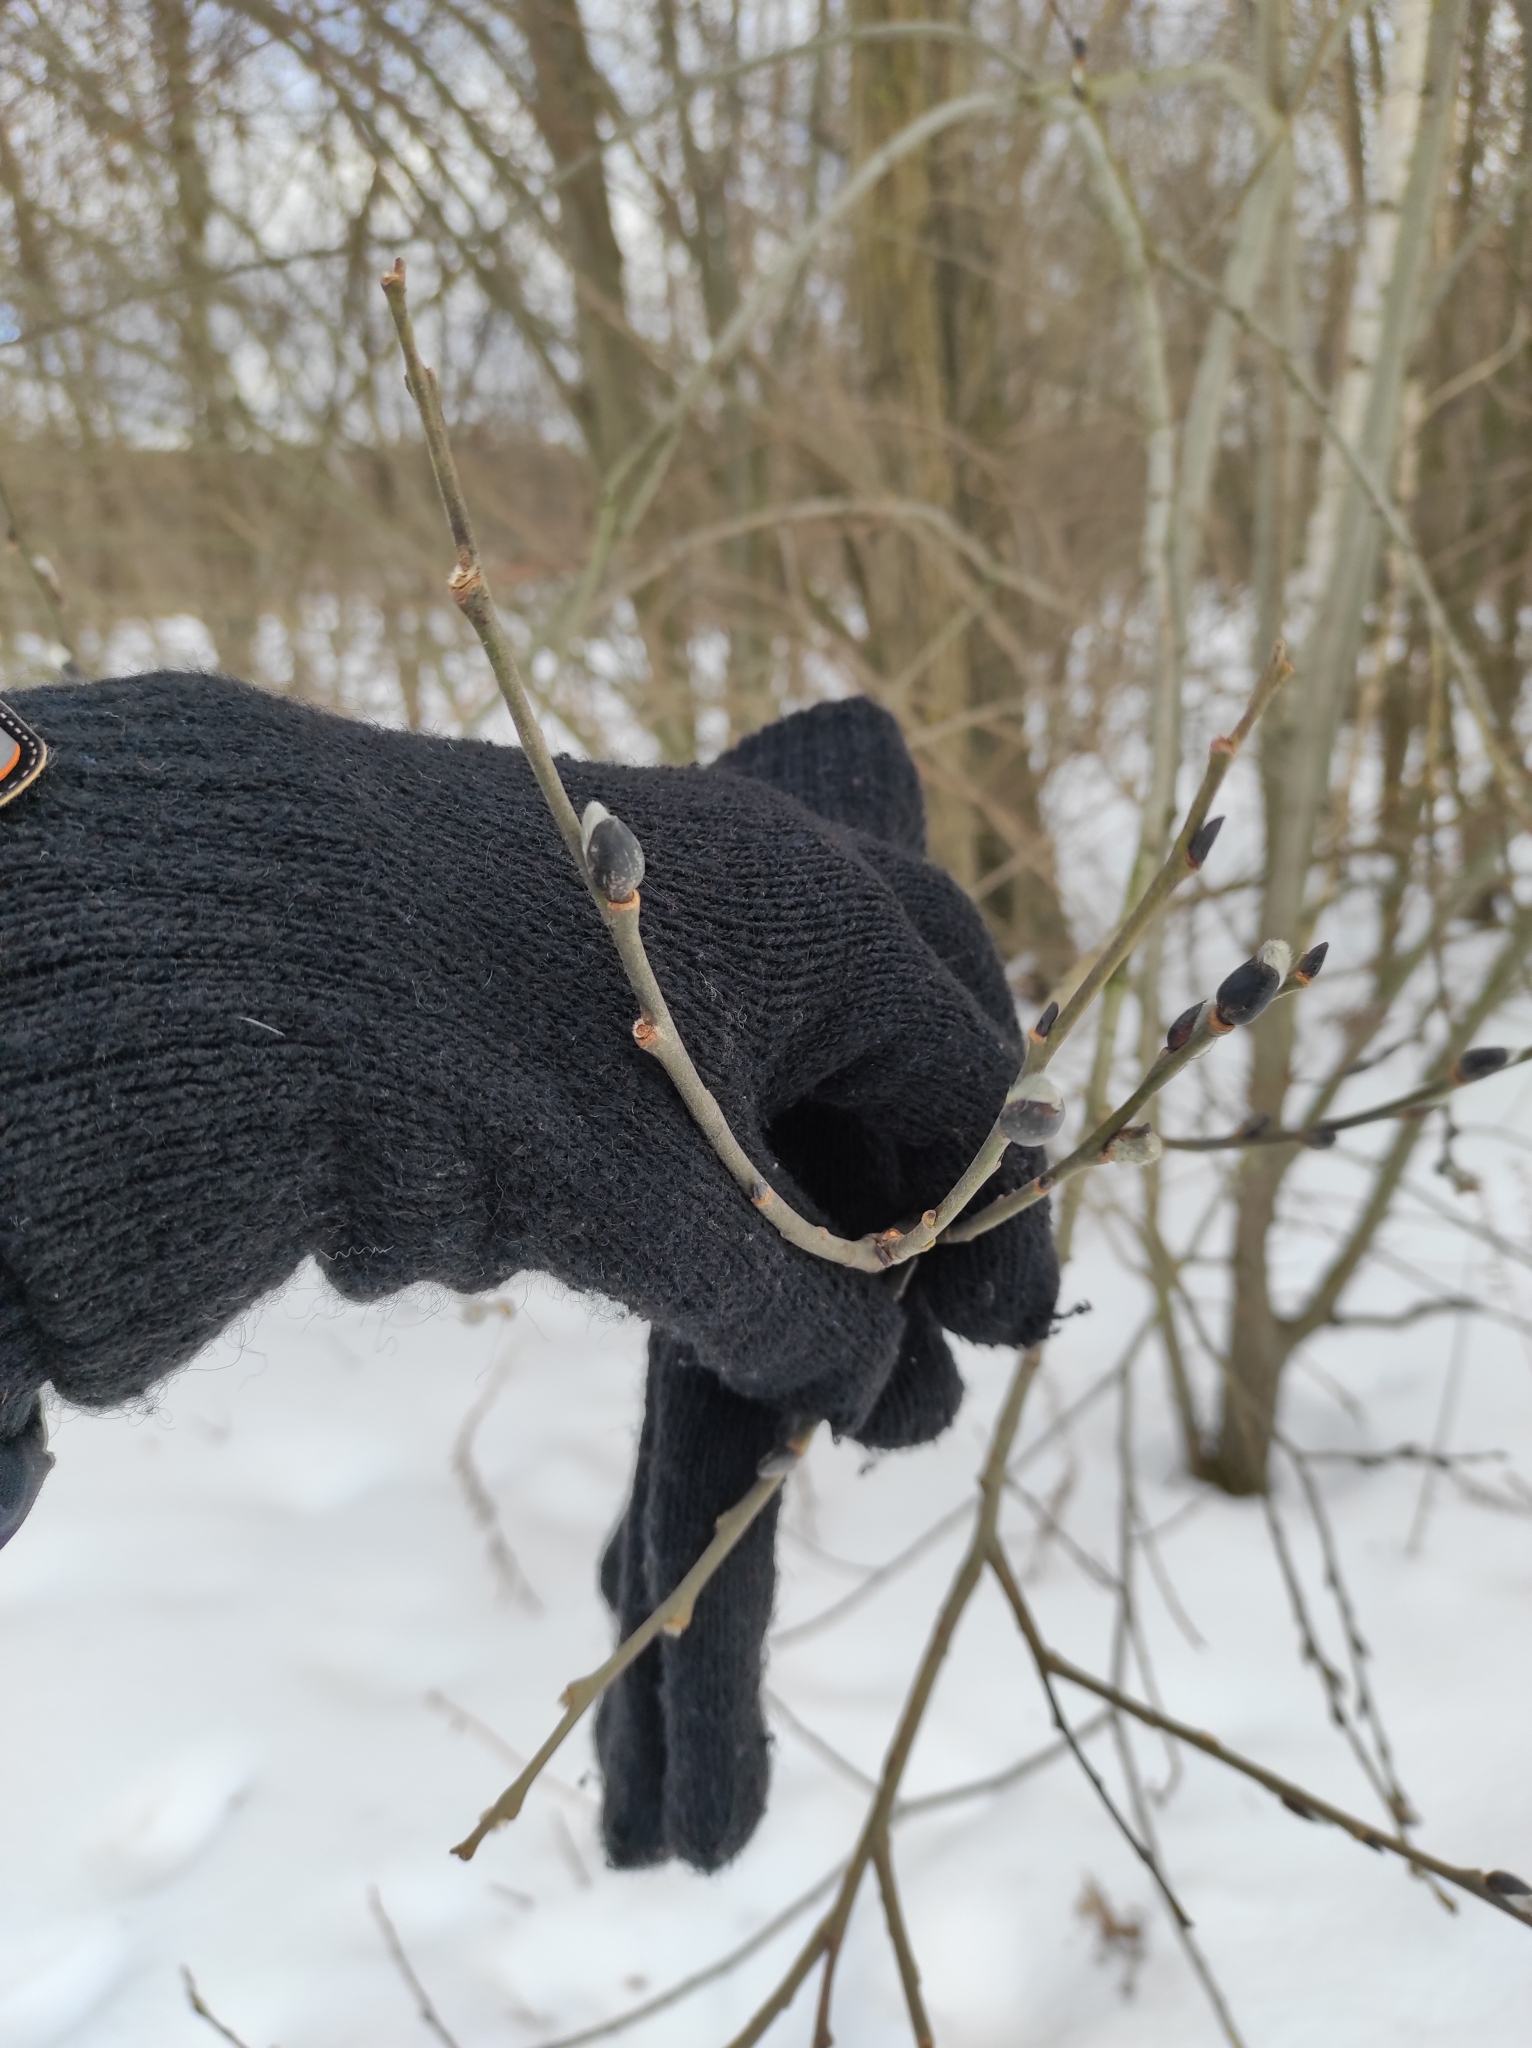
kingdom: Plantae
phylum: Tracheophyta
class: Magnoliopsida
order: Malpighiales
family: Salicaceae
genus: Salix
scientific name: Salix caprea
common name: Goat willow
